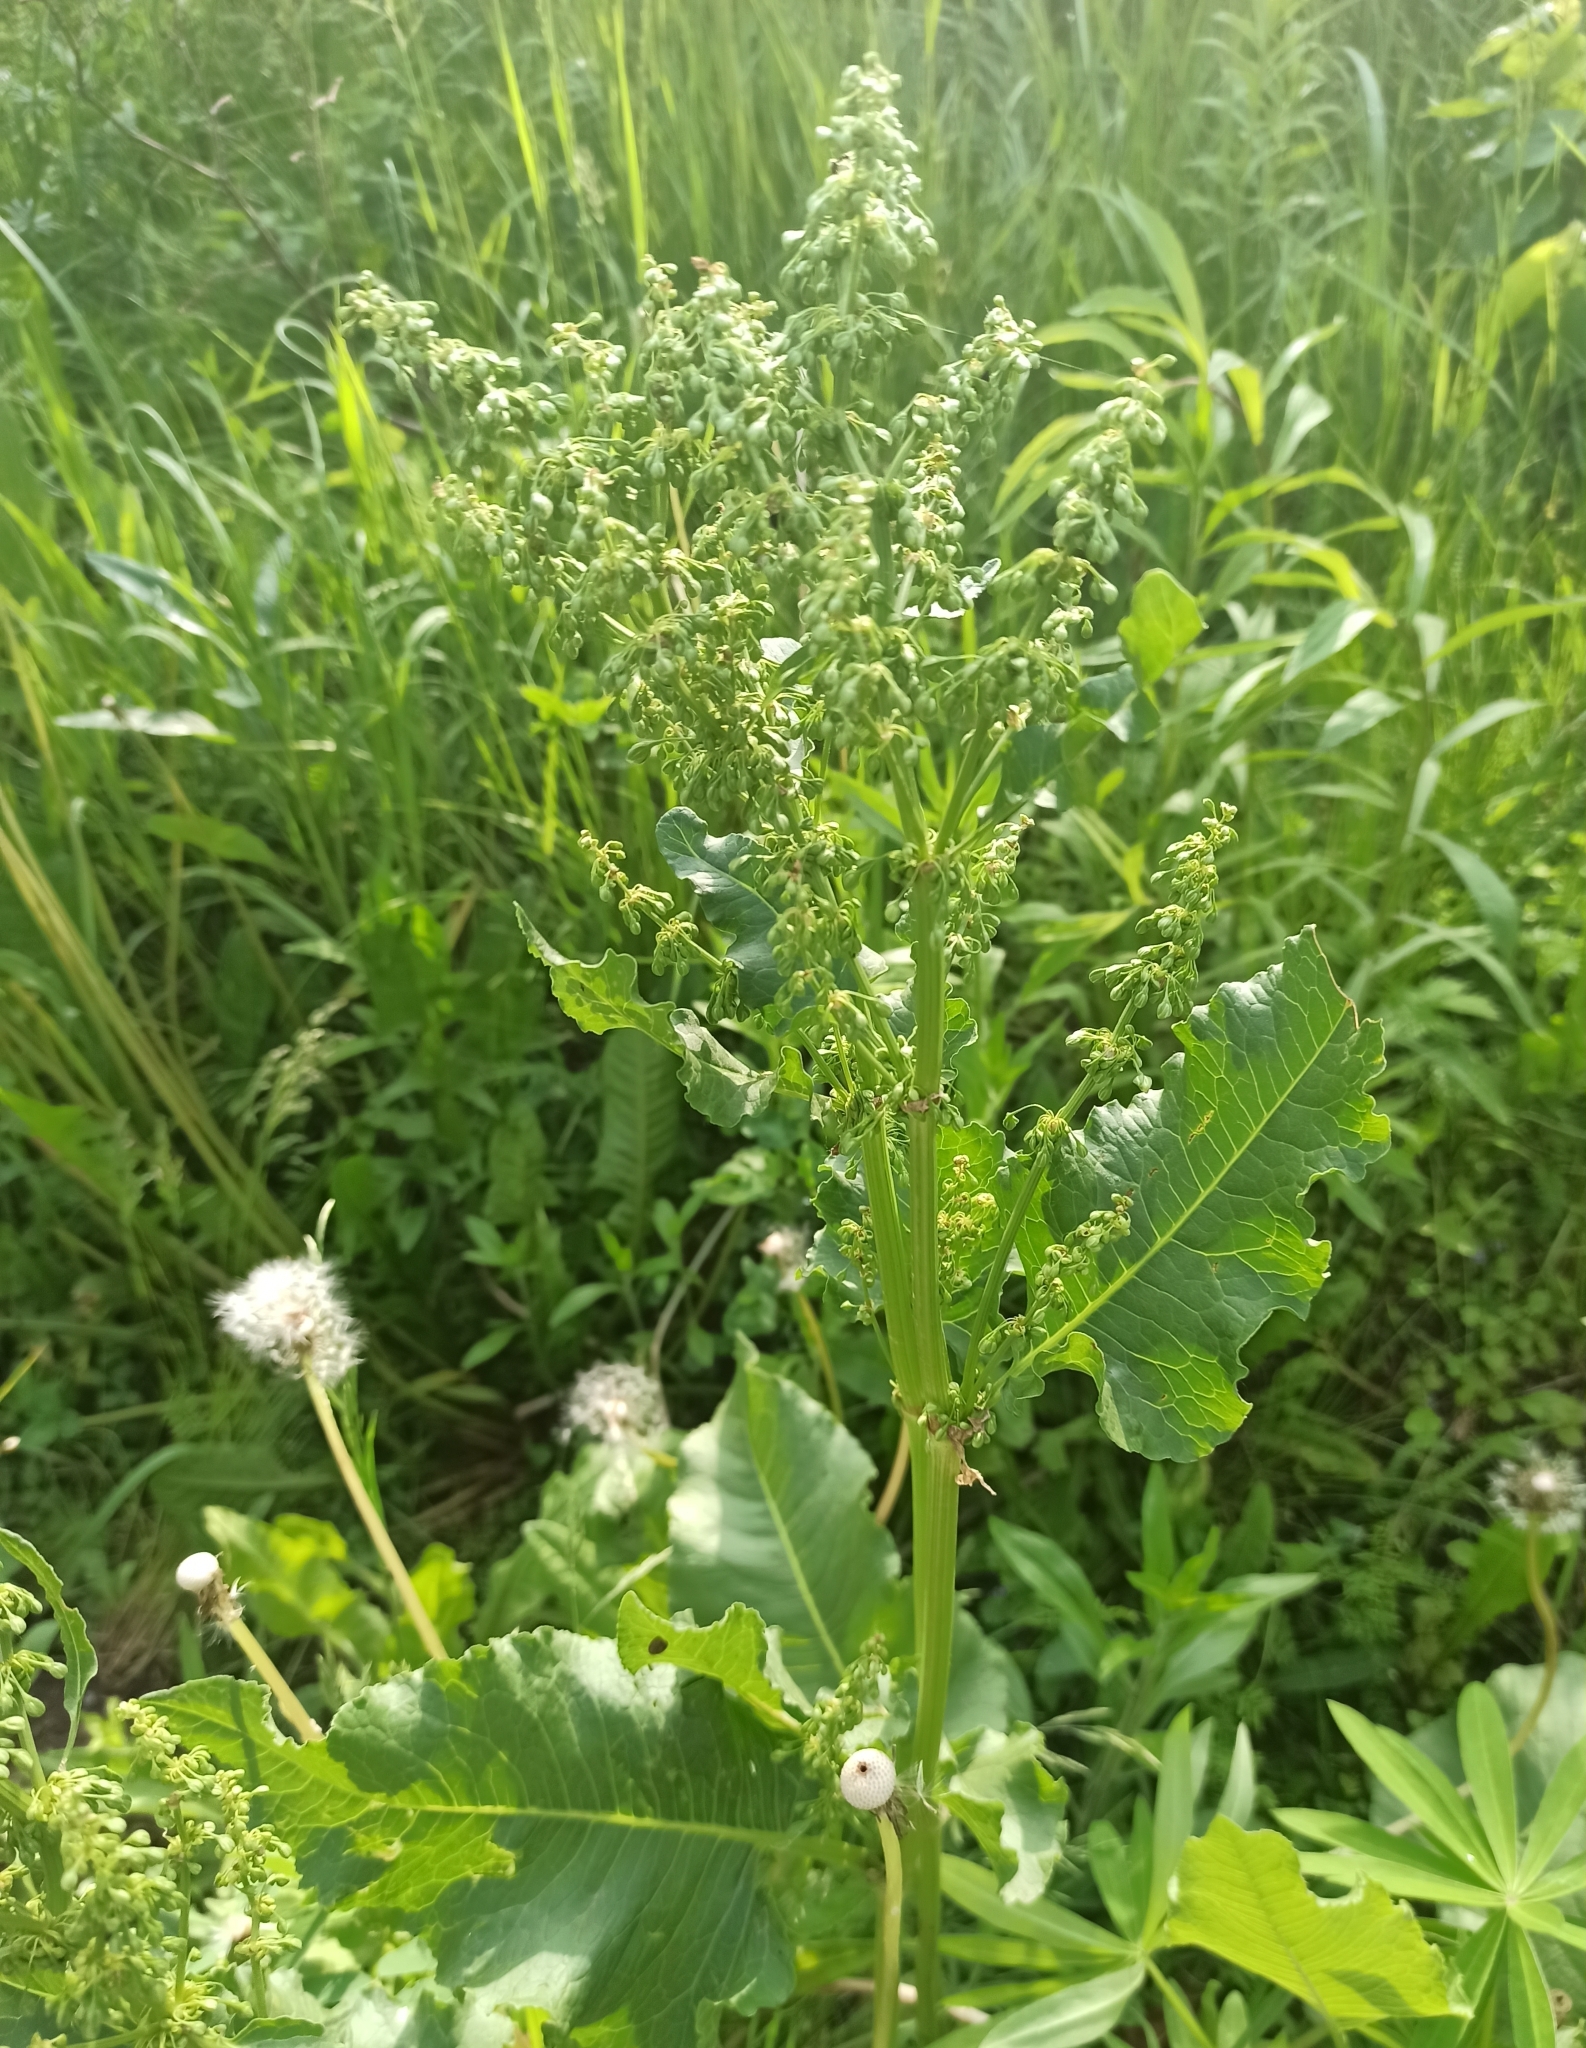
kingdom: Plantae
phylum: Tracheophyta
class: Magnoliopsida
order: Caryophyllales
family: Polygonaceae
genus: Rumex
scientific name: Rumex confertus
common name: Russian dock
